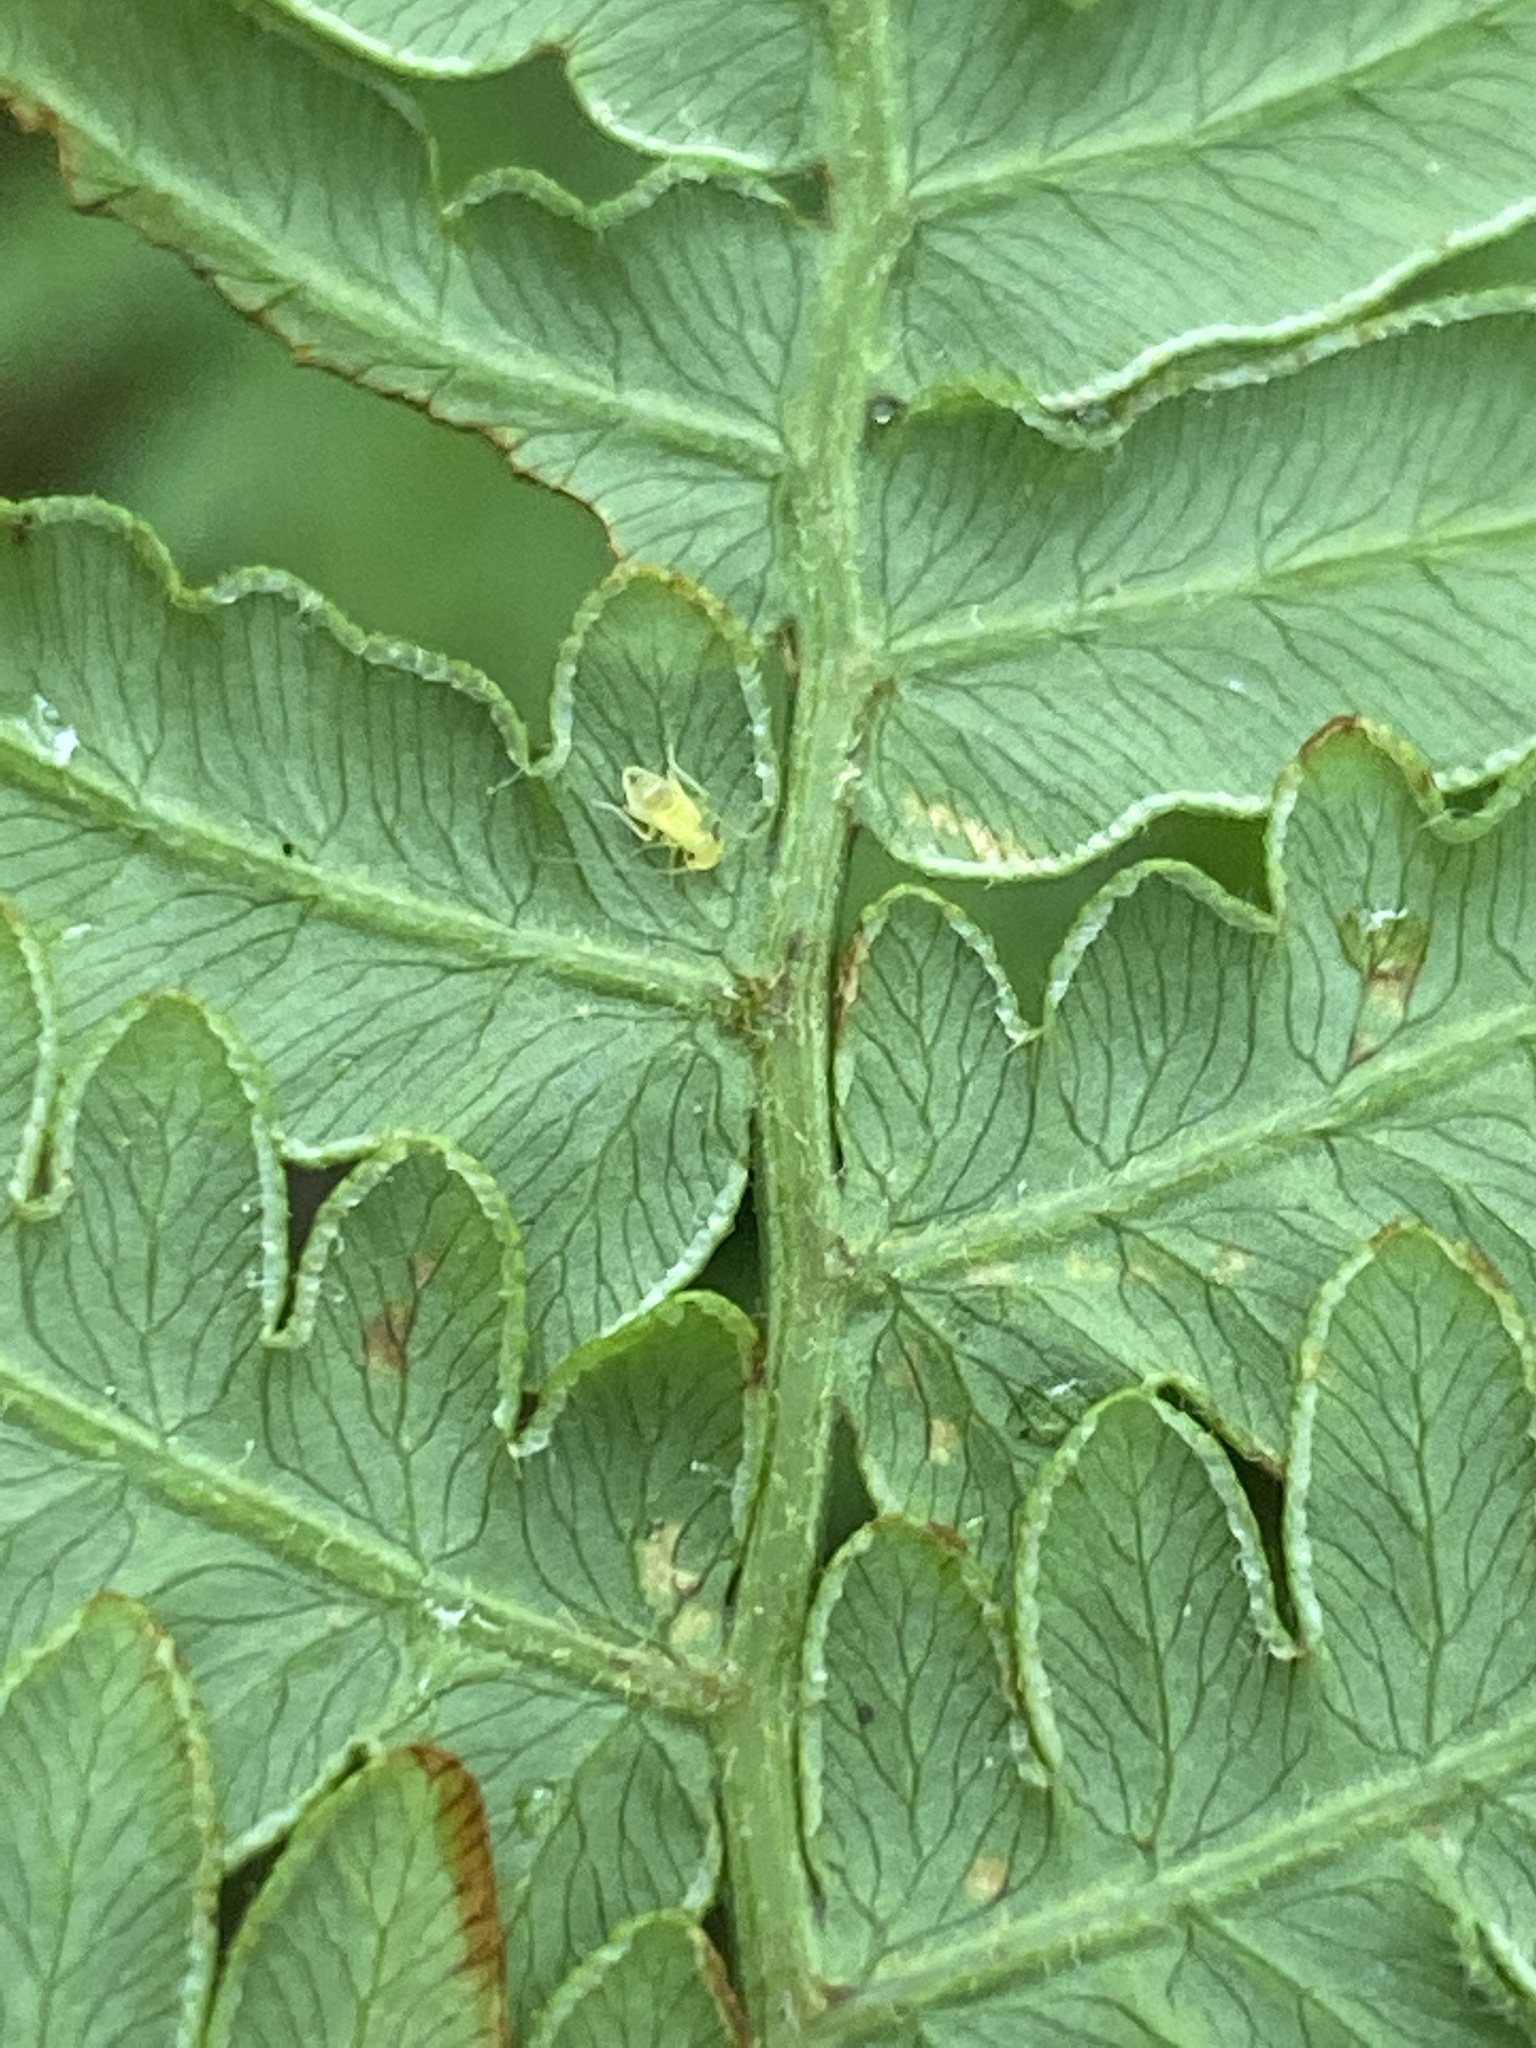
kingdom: Plantae
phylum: Tracheophyta
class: Polypodiopsida
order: Polypodiales
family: Dennstaedtiaceae
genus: Pteridium
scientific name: Pteridium aquilinum
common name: Bracken
